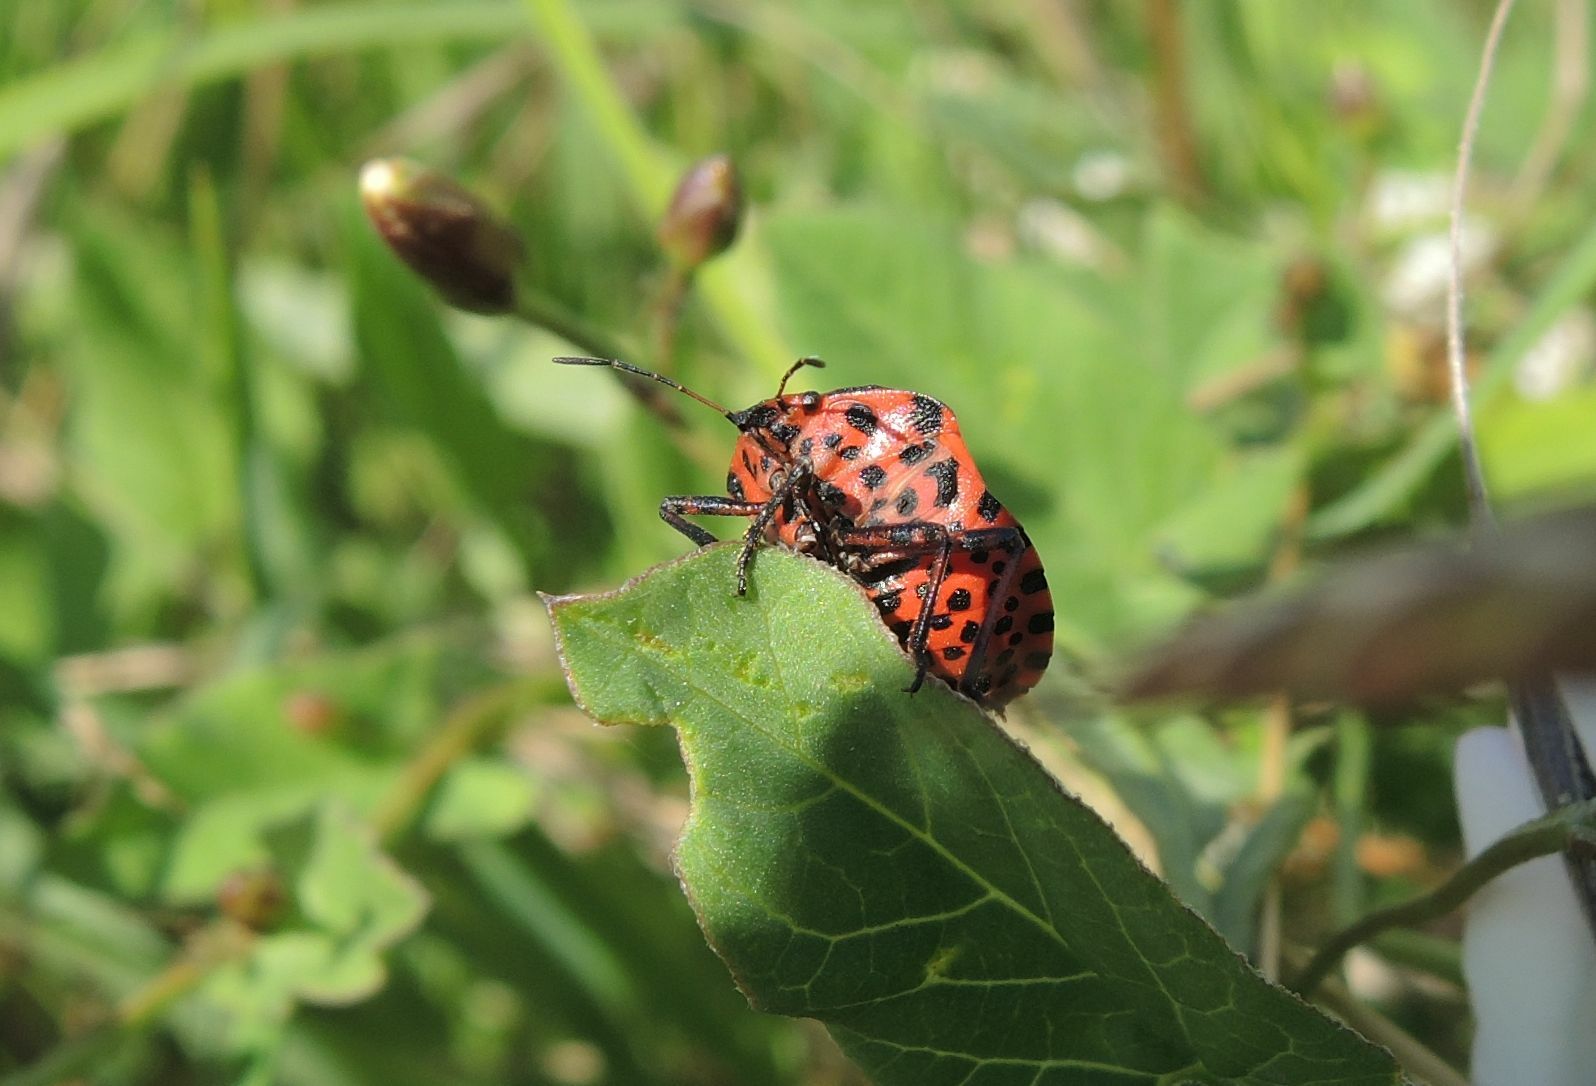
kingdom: Animalia
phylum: Arthropoda
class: Insecta
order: Hemiptera
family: Pentatomidae
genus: Graphosoma
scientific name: Graphosoma italicum
